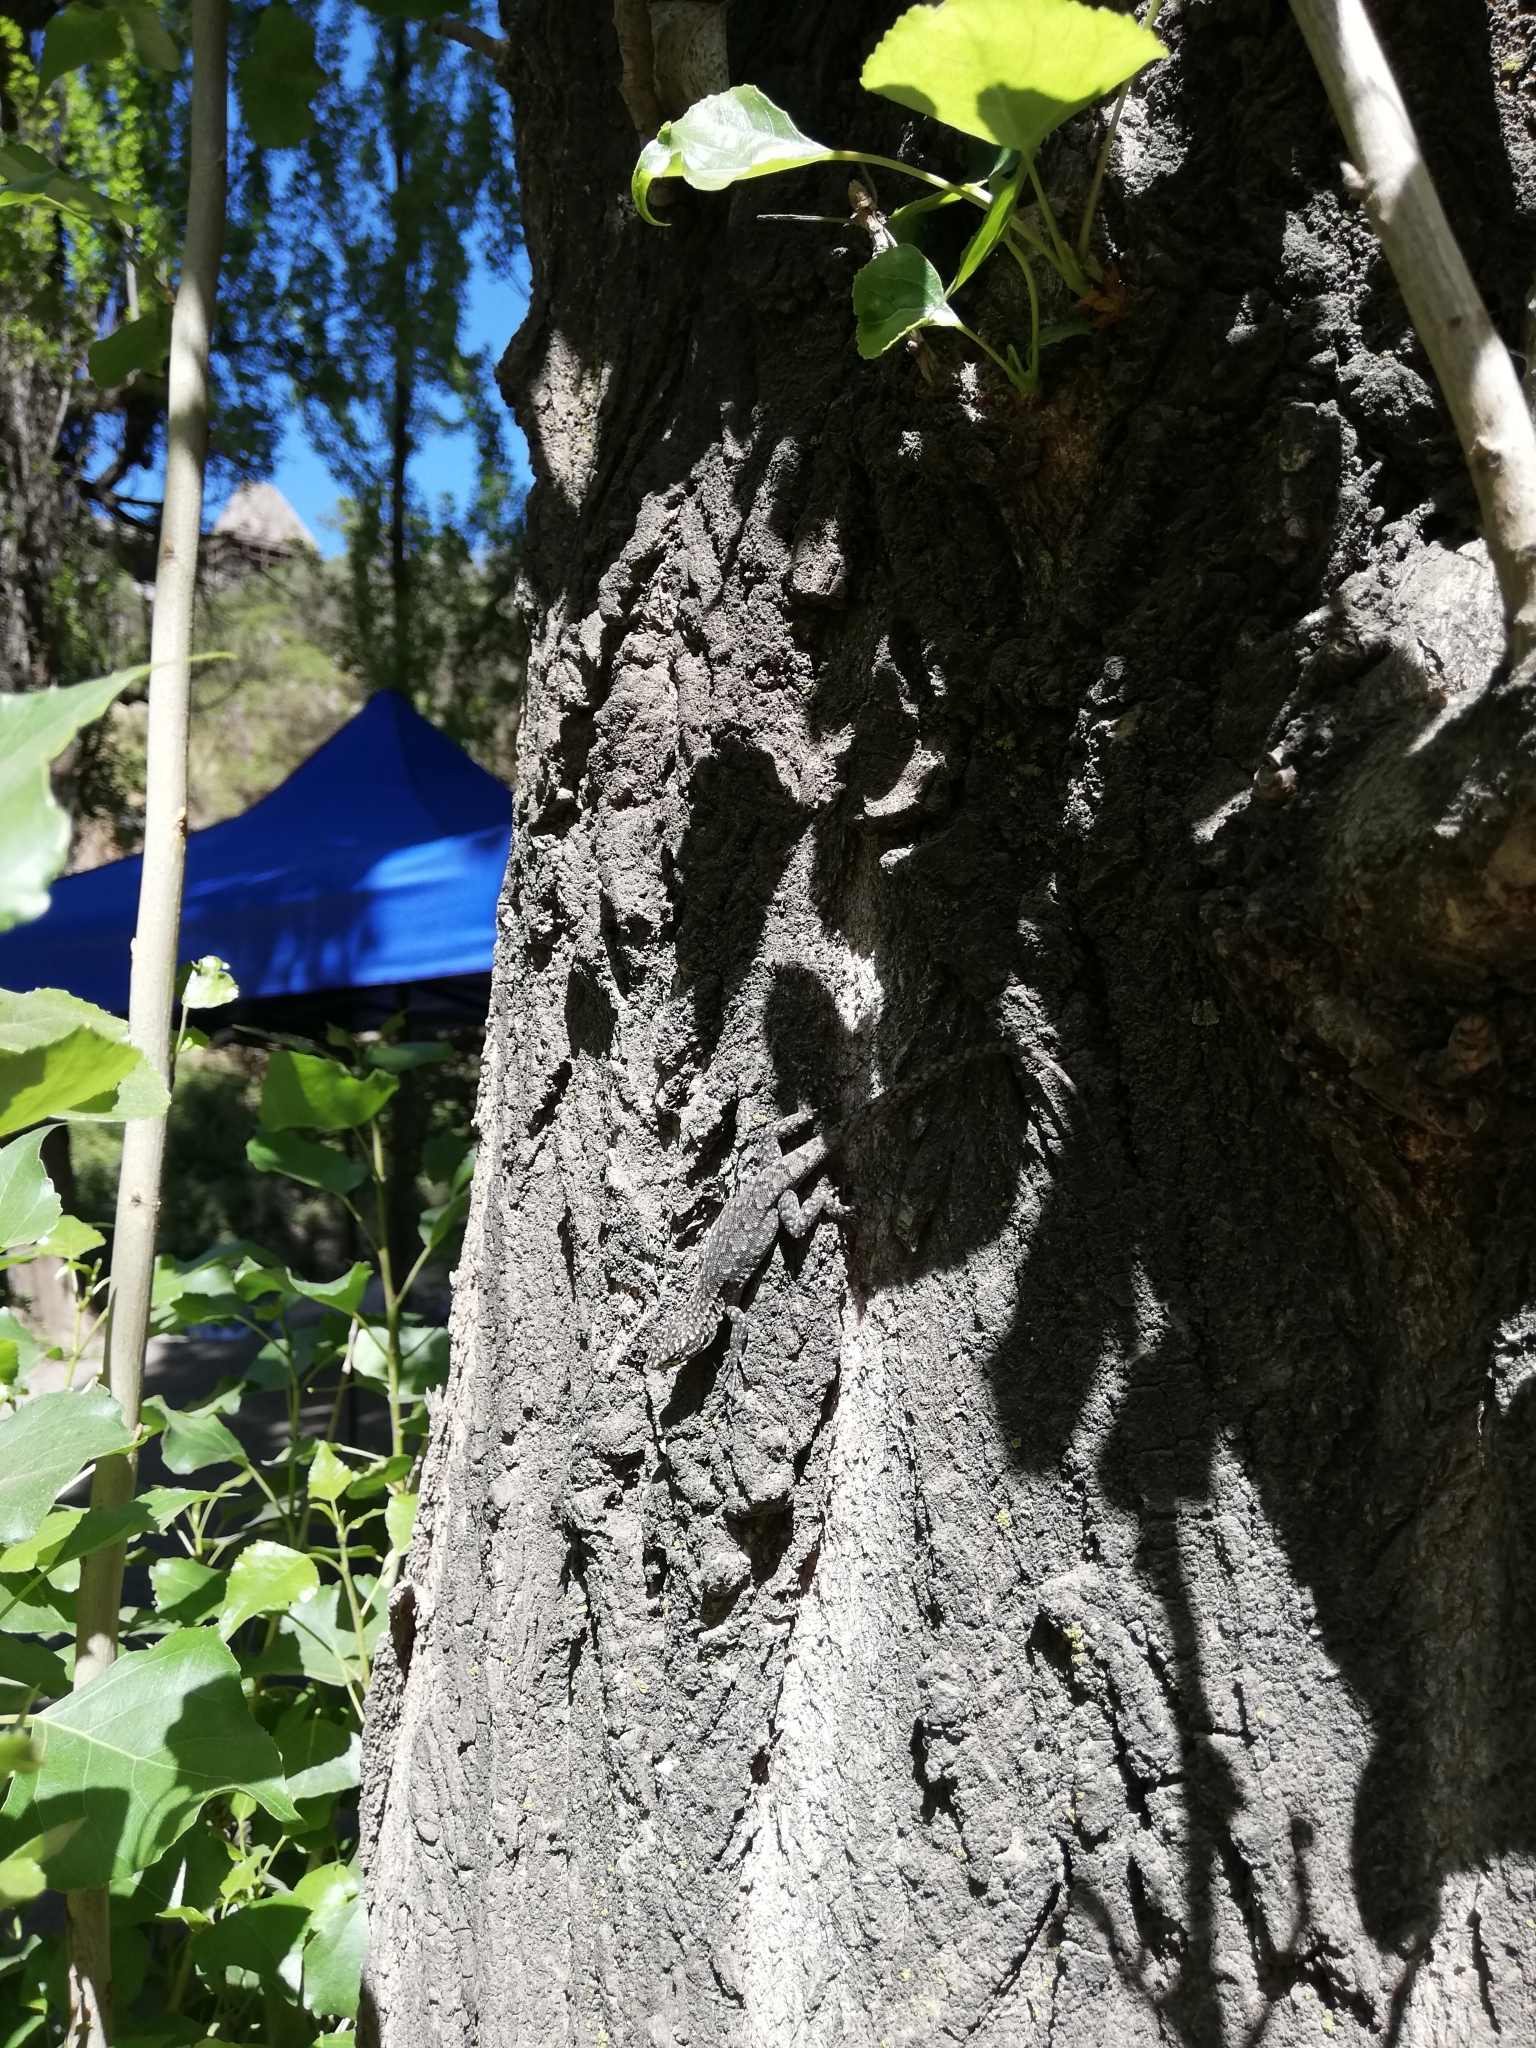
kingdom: Animalia
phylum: Chordata
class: Squamata
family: Liolaemidae
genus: Liolaemus
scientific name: Liolaemus tenuis
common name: Thin tree iguana
